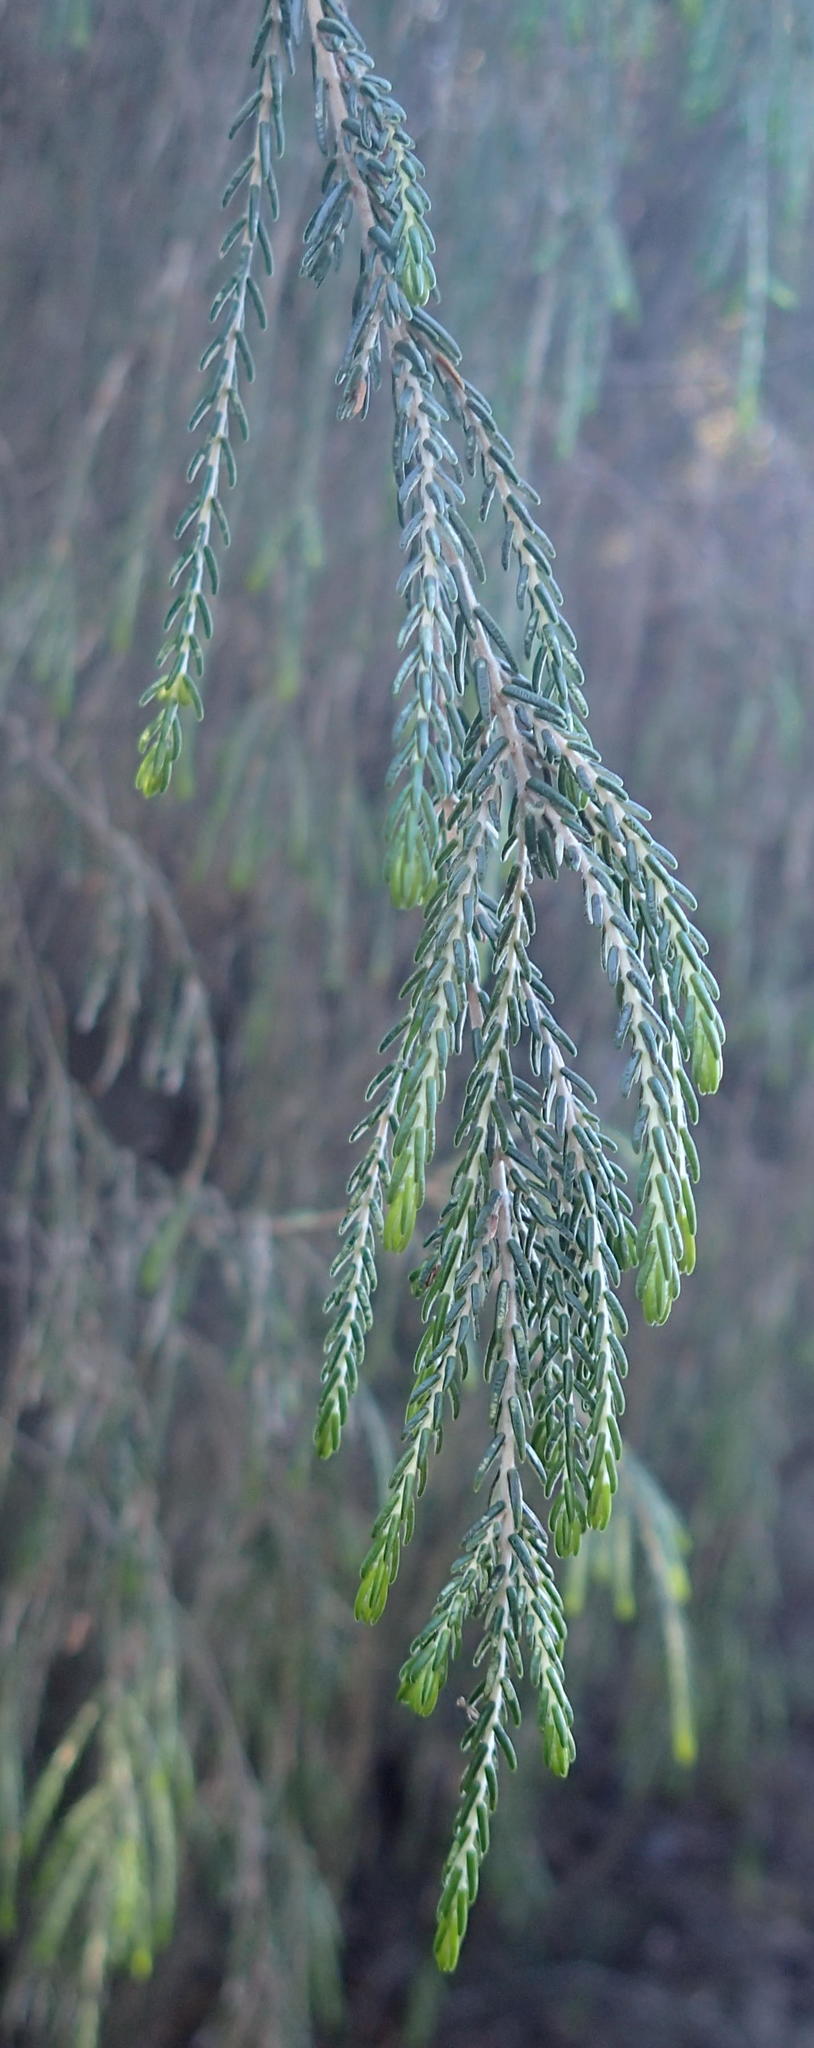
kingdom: Plantae
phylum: Tracheophyta
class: Magnoliopsida
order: Malvales
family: Thymelaeaceae
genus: Passerina
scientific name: Passerina falcifolia
